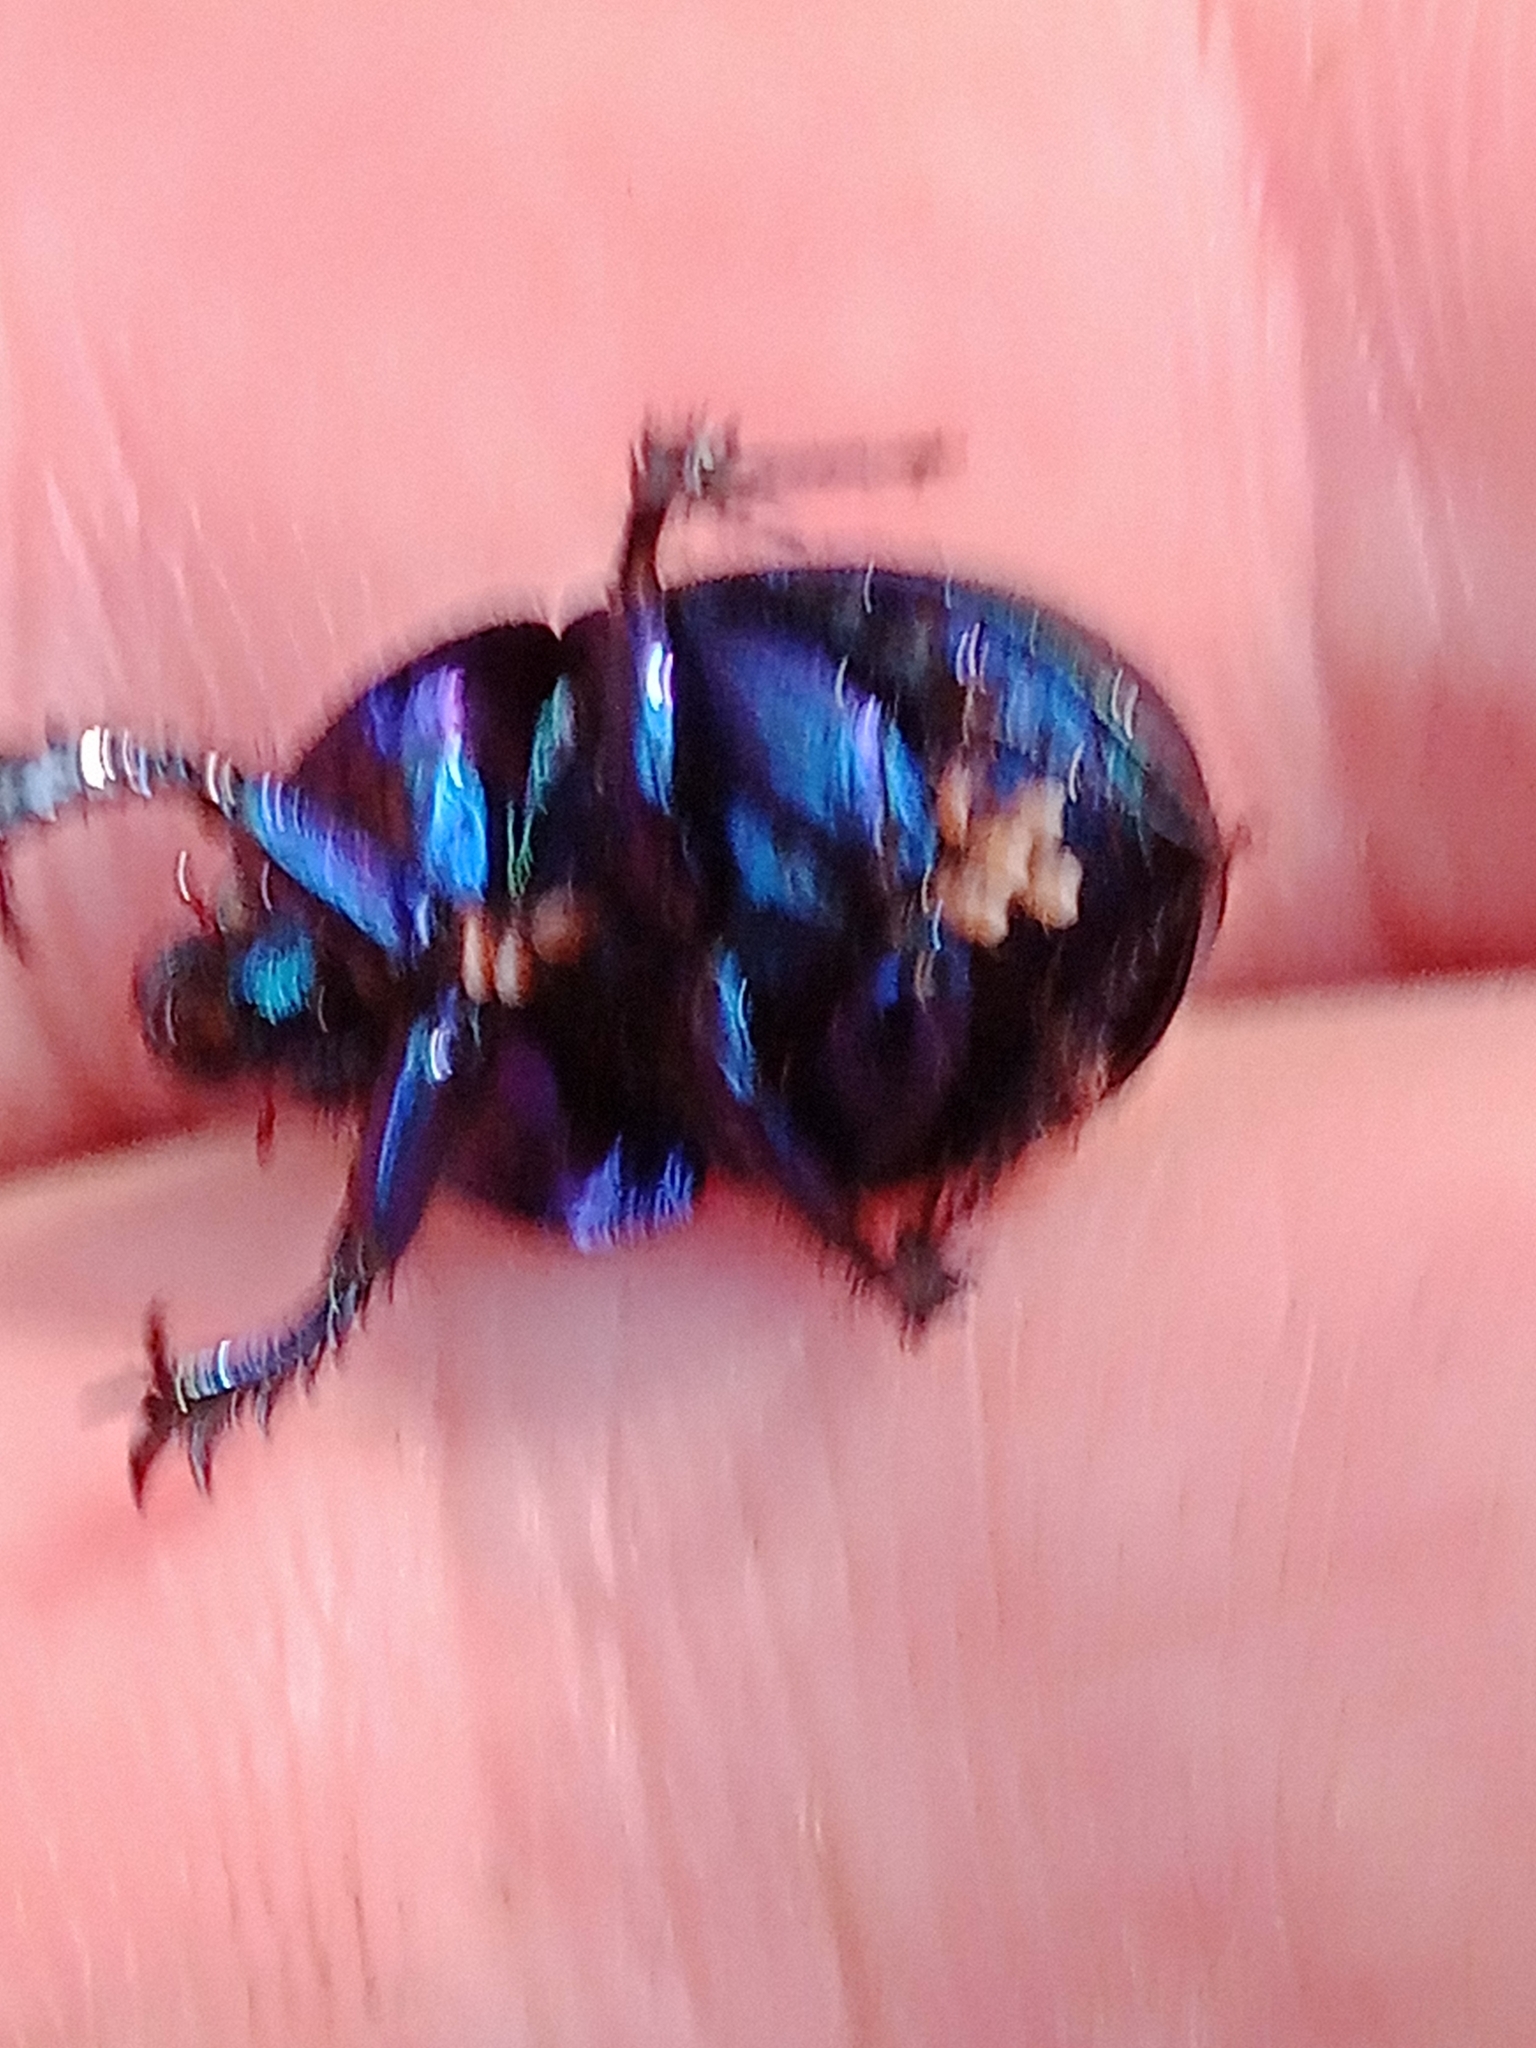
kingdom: Animalia
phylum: Arthropoda
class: Insecta
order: Coleoptera
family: Geotrupidae
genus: Anoplotrupes
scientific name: Anoplotrupes stercorosus
